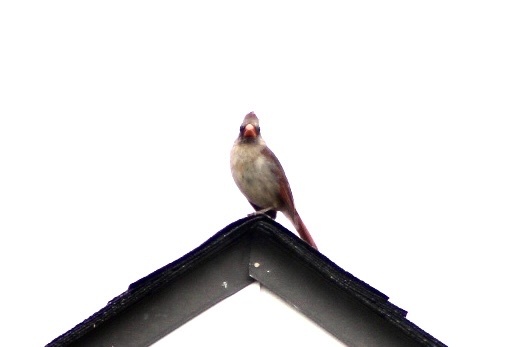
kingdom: Animalia
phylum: Chordata
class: Aves
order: Passeriformes
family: Cardinalidae
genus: Cardinalis
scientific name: Cardinalis cardinalis
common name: Northern cardinal
